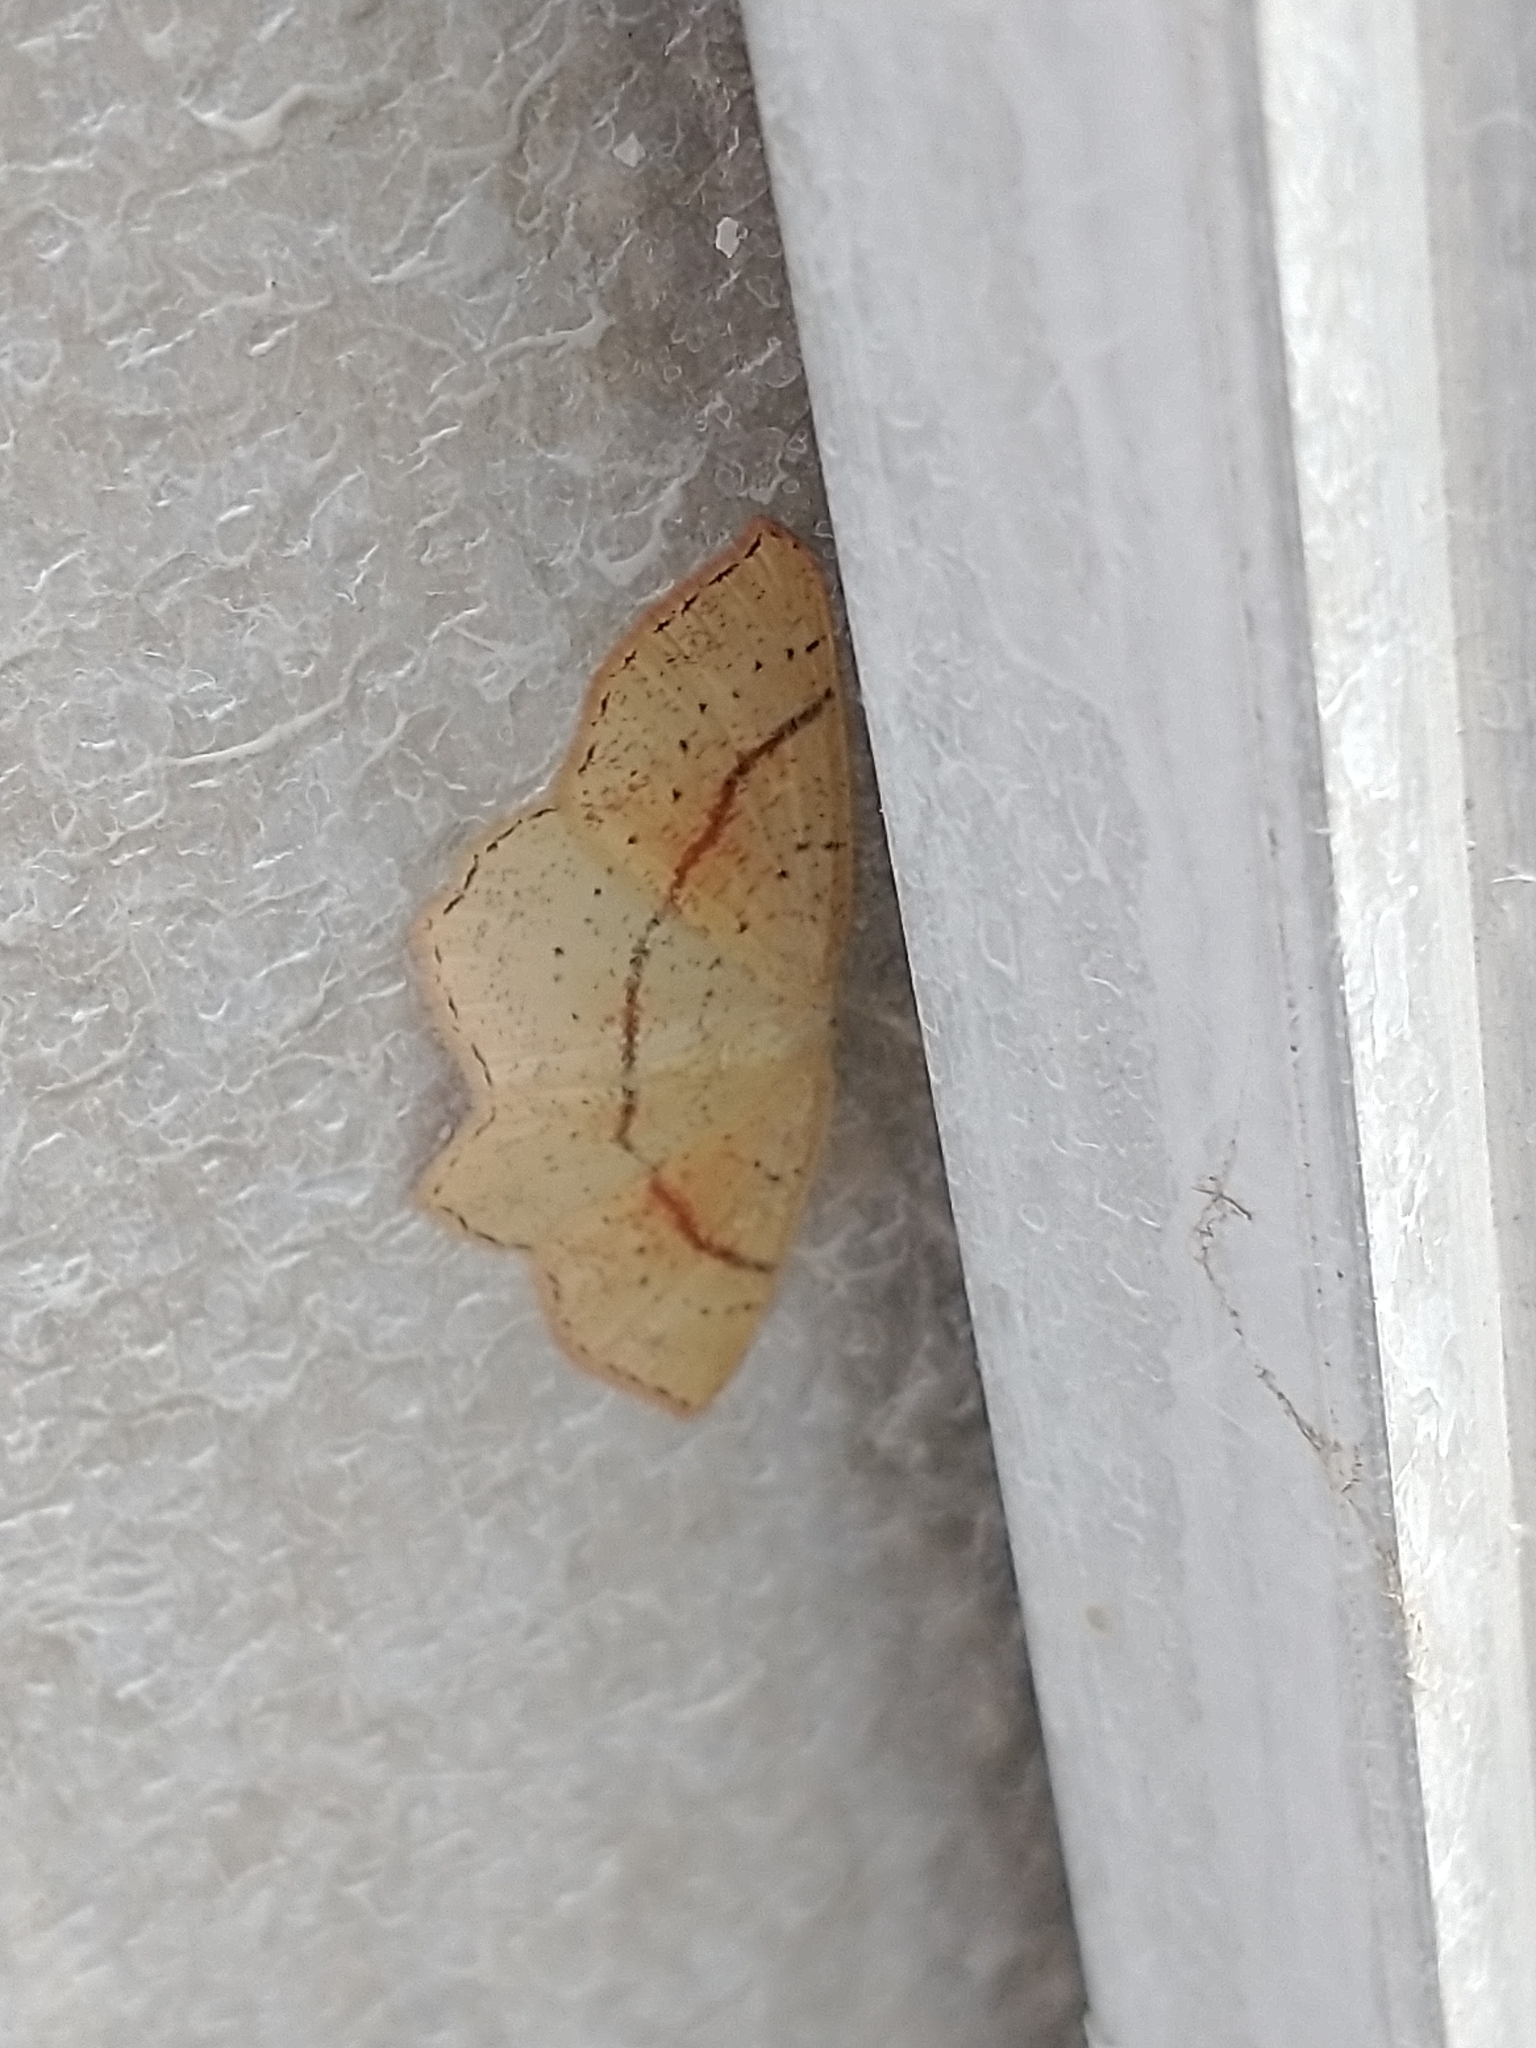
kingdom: Animalia
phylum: Arthropoda
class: Insecta
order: Lepidoptera
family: Geometridae
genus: Cyclophora
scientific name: Cyclophora punctaria
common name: Maiden's blush
